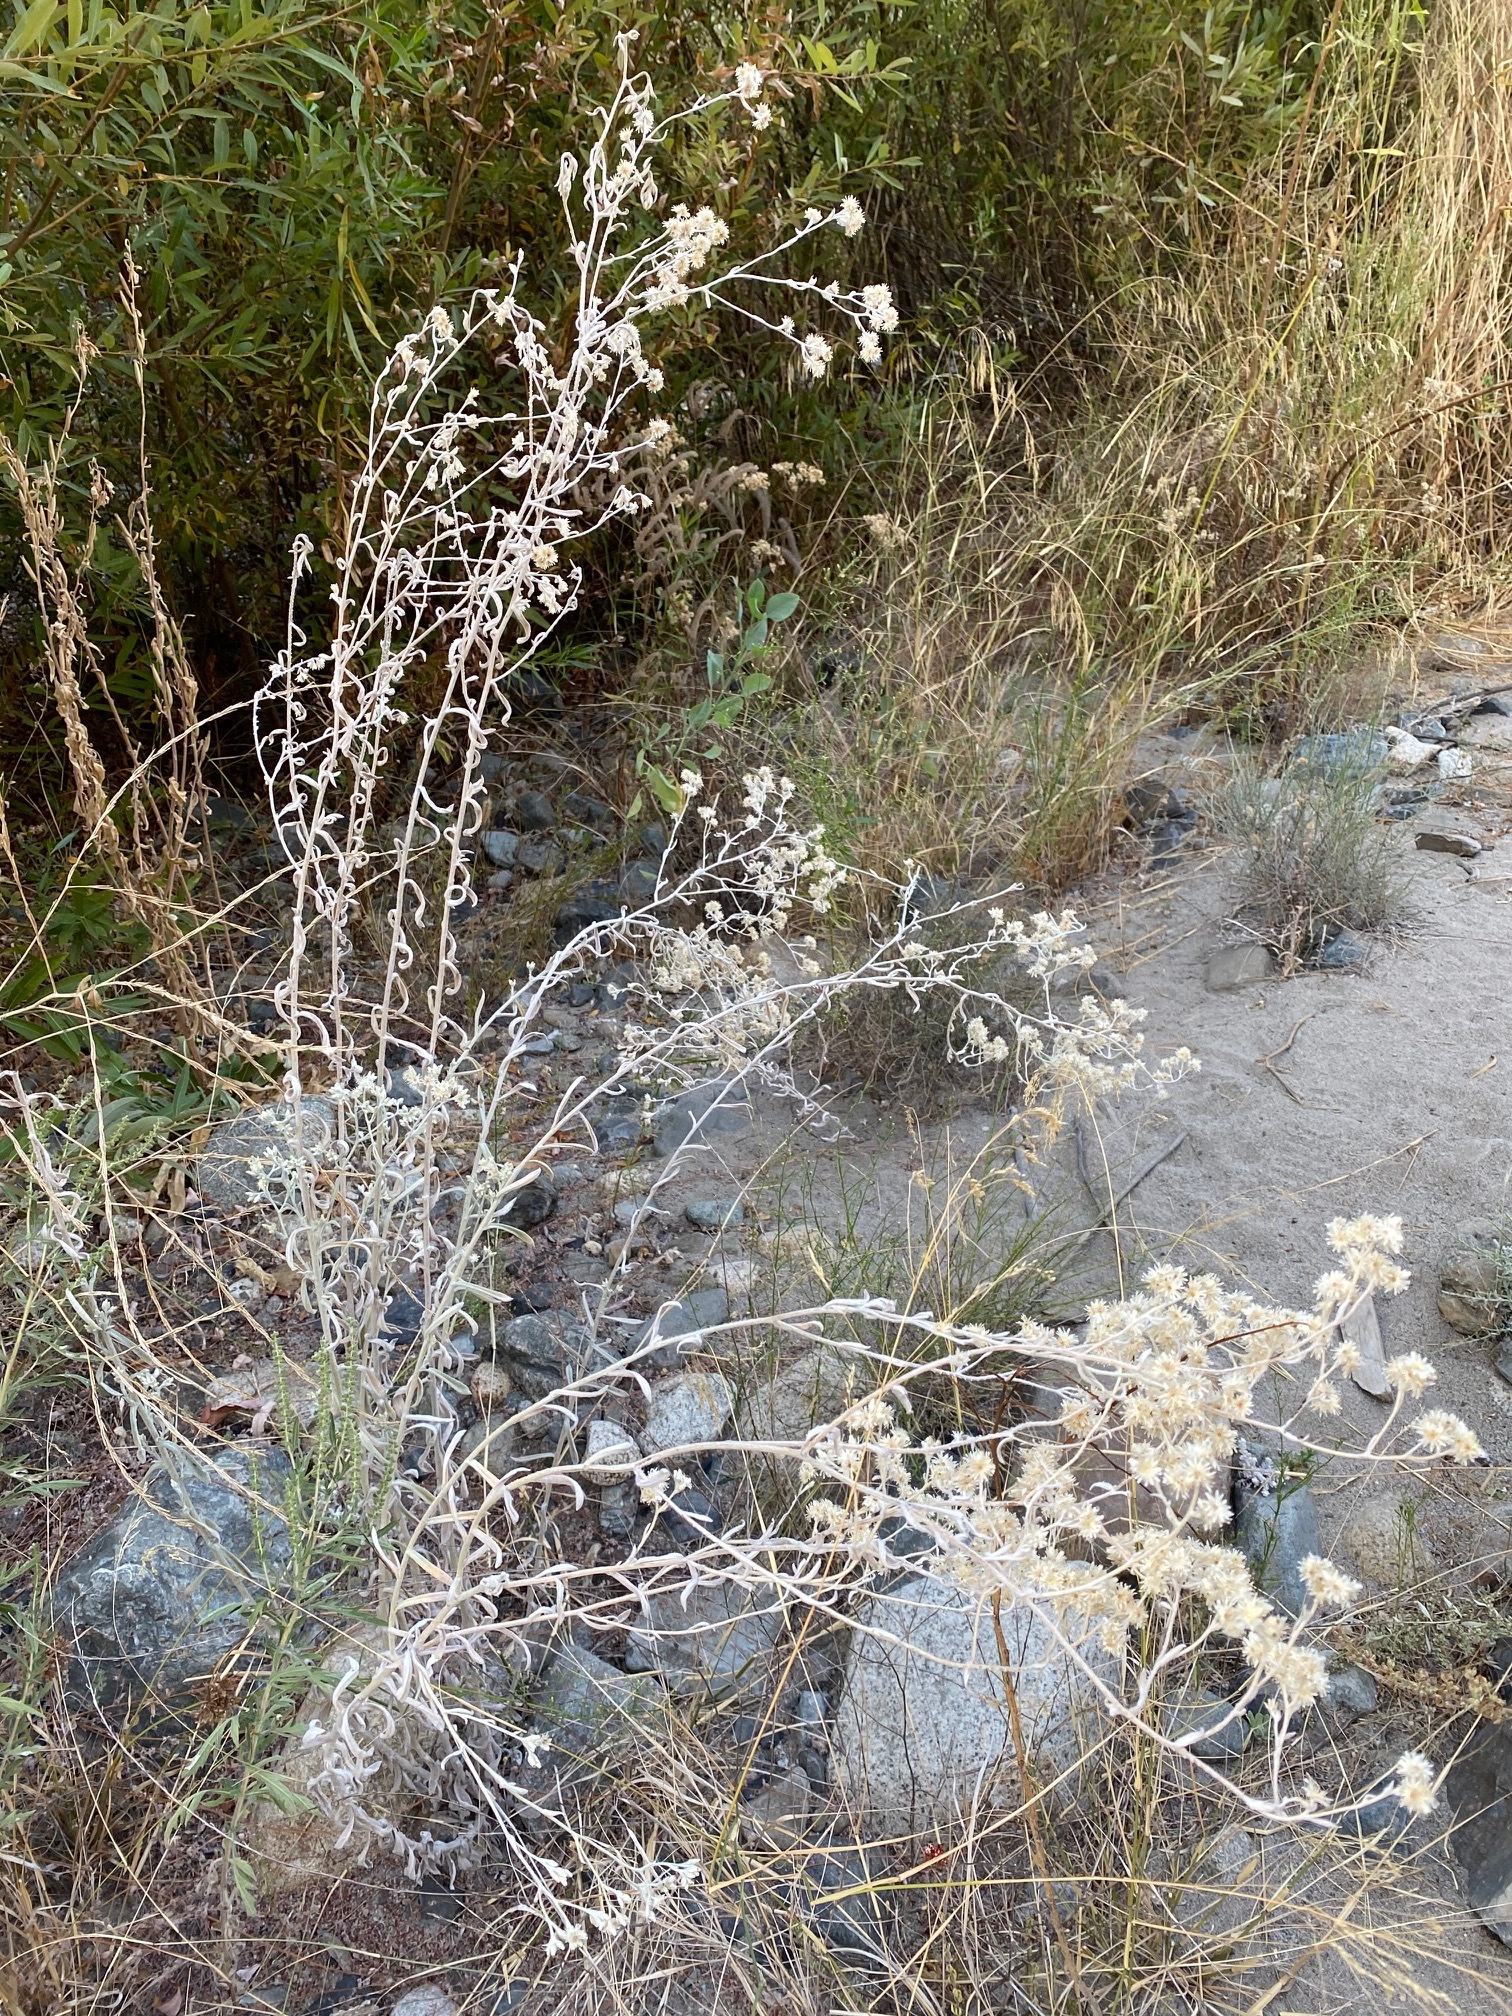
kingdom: Plantae
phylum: Tracheophyta
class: Magnoliopsida
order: Asterales
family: Asteraceae
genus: Pseudognaphalium
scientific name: Pseudognaphalium microcephalum
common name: San diego rabbit-tobacco
